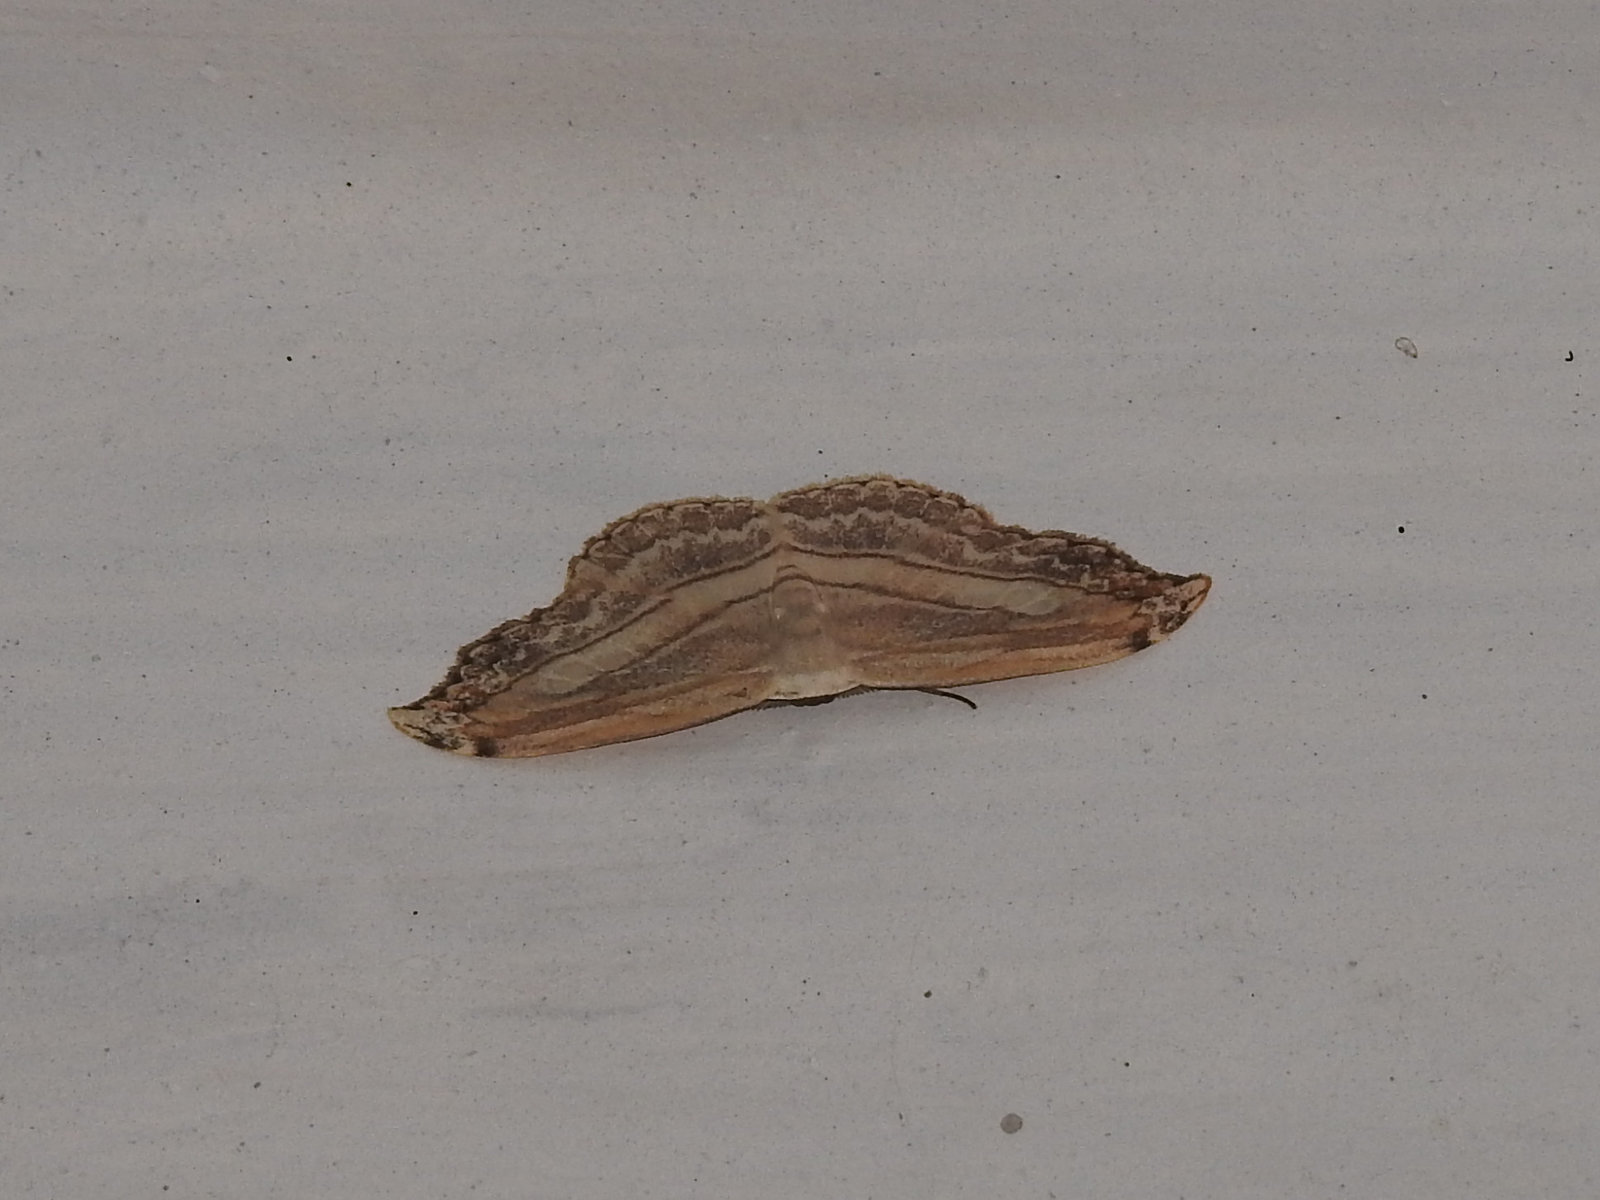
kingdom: Animalia
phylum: Arthropoda
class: Insecta
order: Lepidoptera
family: Drepanidae
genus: Leucoblepsis
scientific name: Leucoblepsis fenestraria
